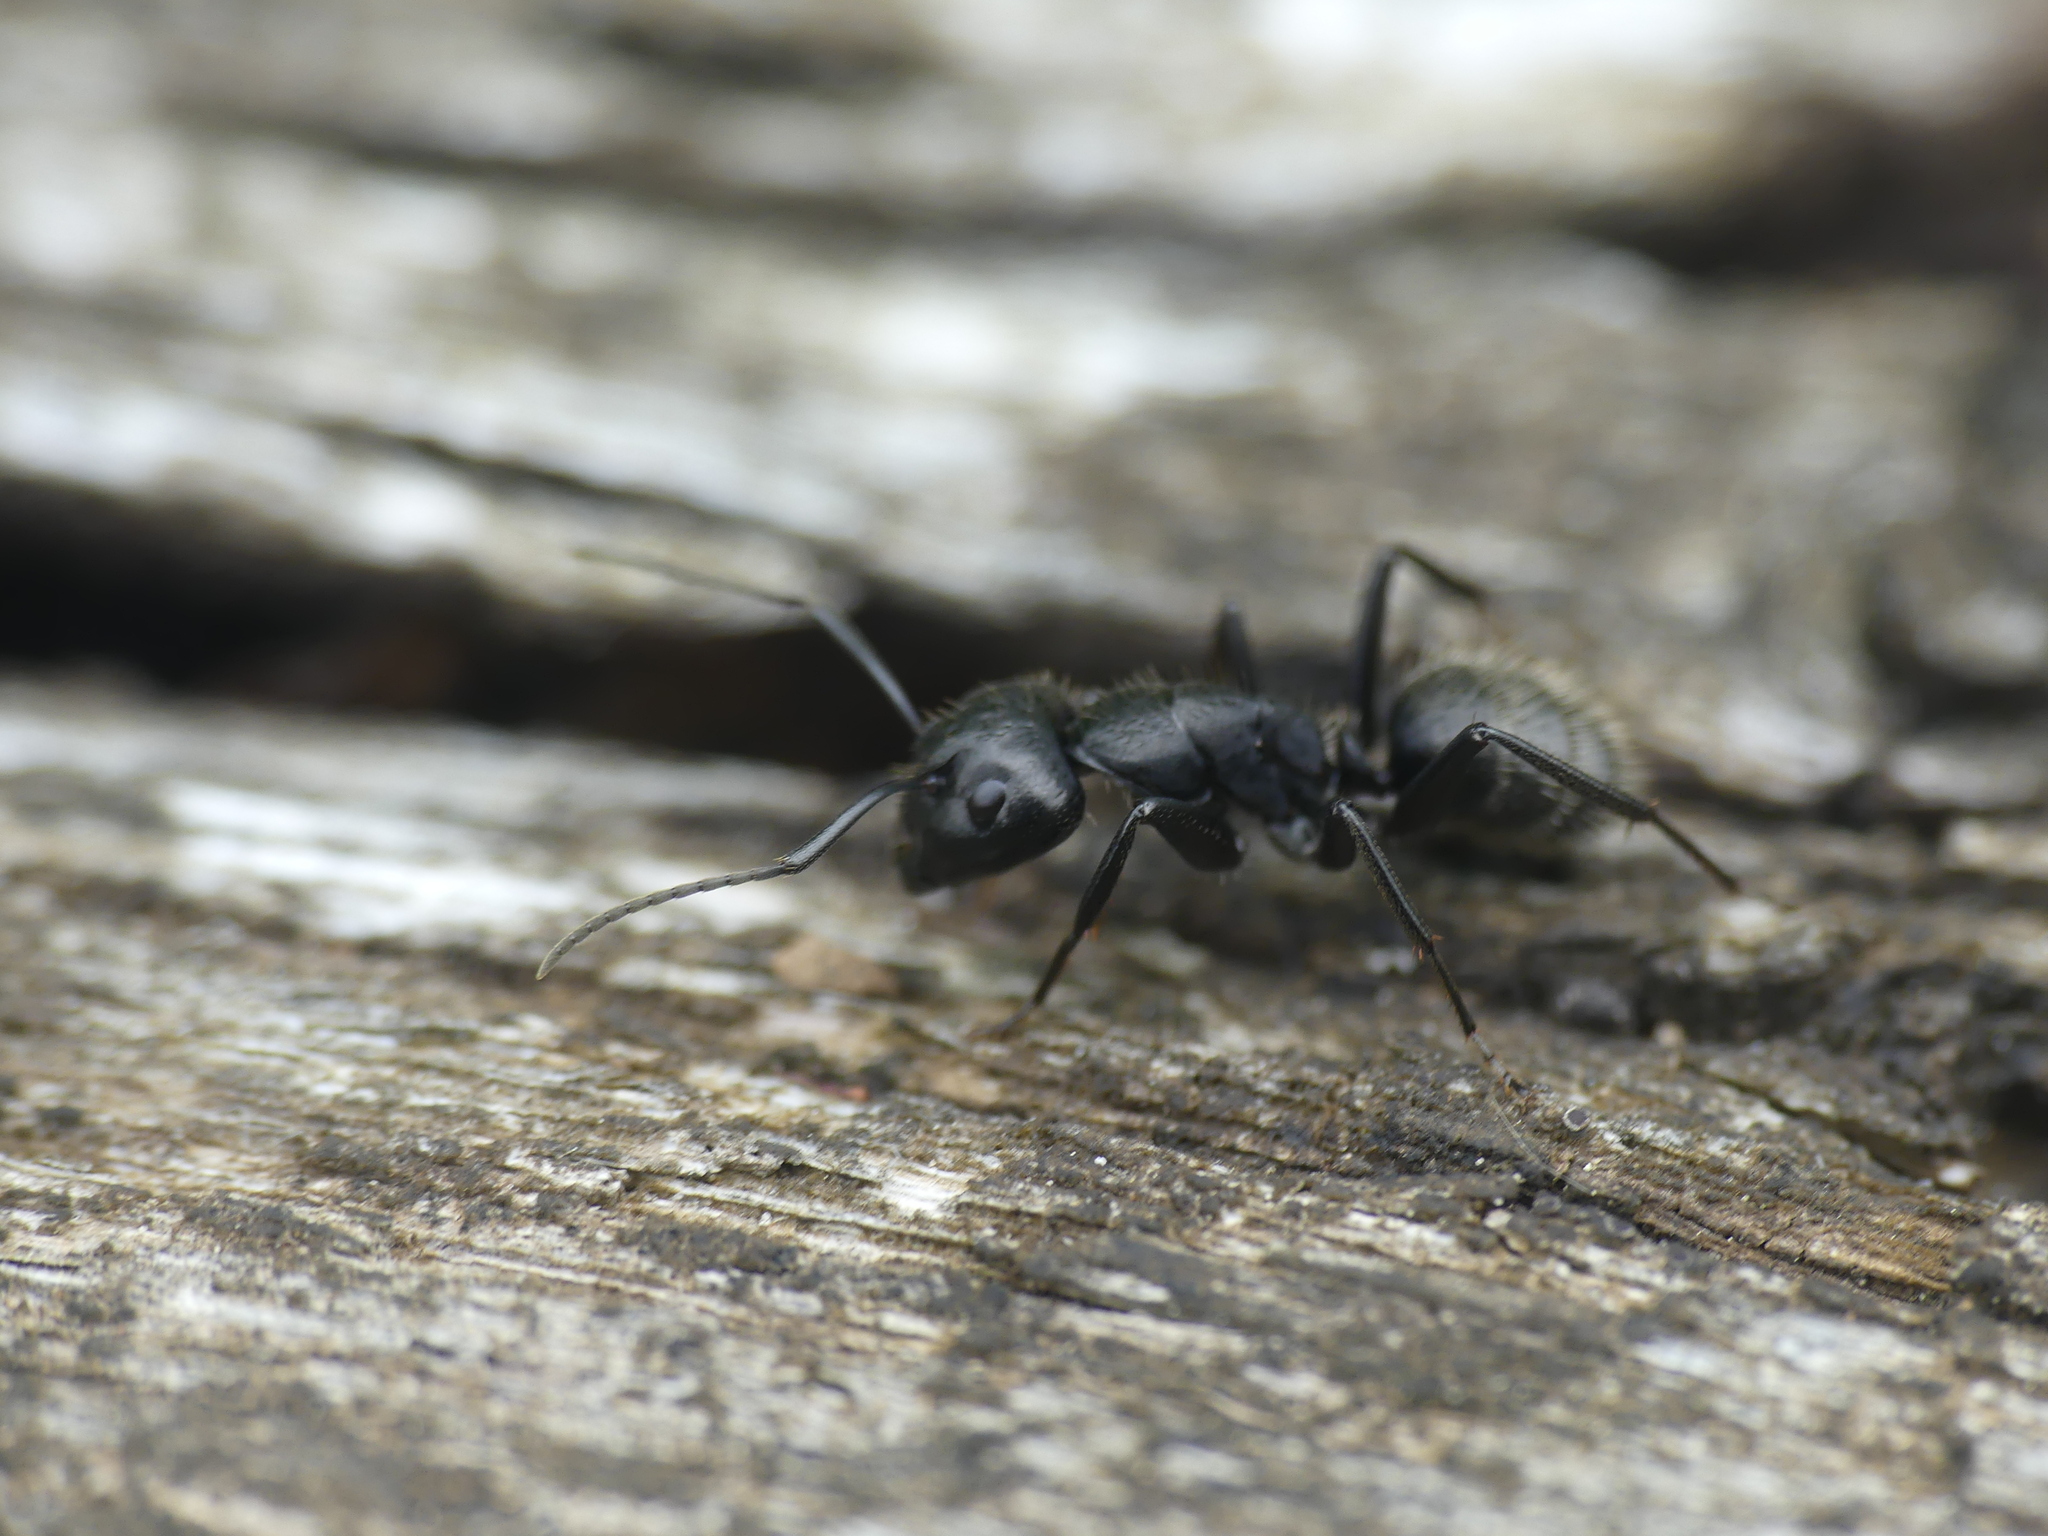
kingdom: Animalia
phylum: Arthropoda
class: Insecta
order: Hymenoptera
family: Formicidae
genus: Camponotus
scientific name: Camponotus vagus
